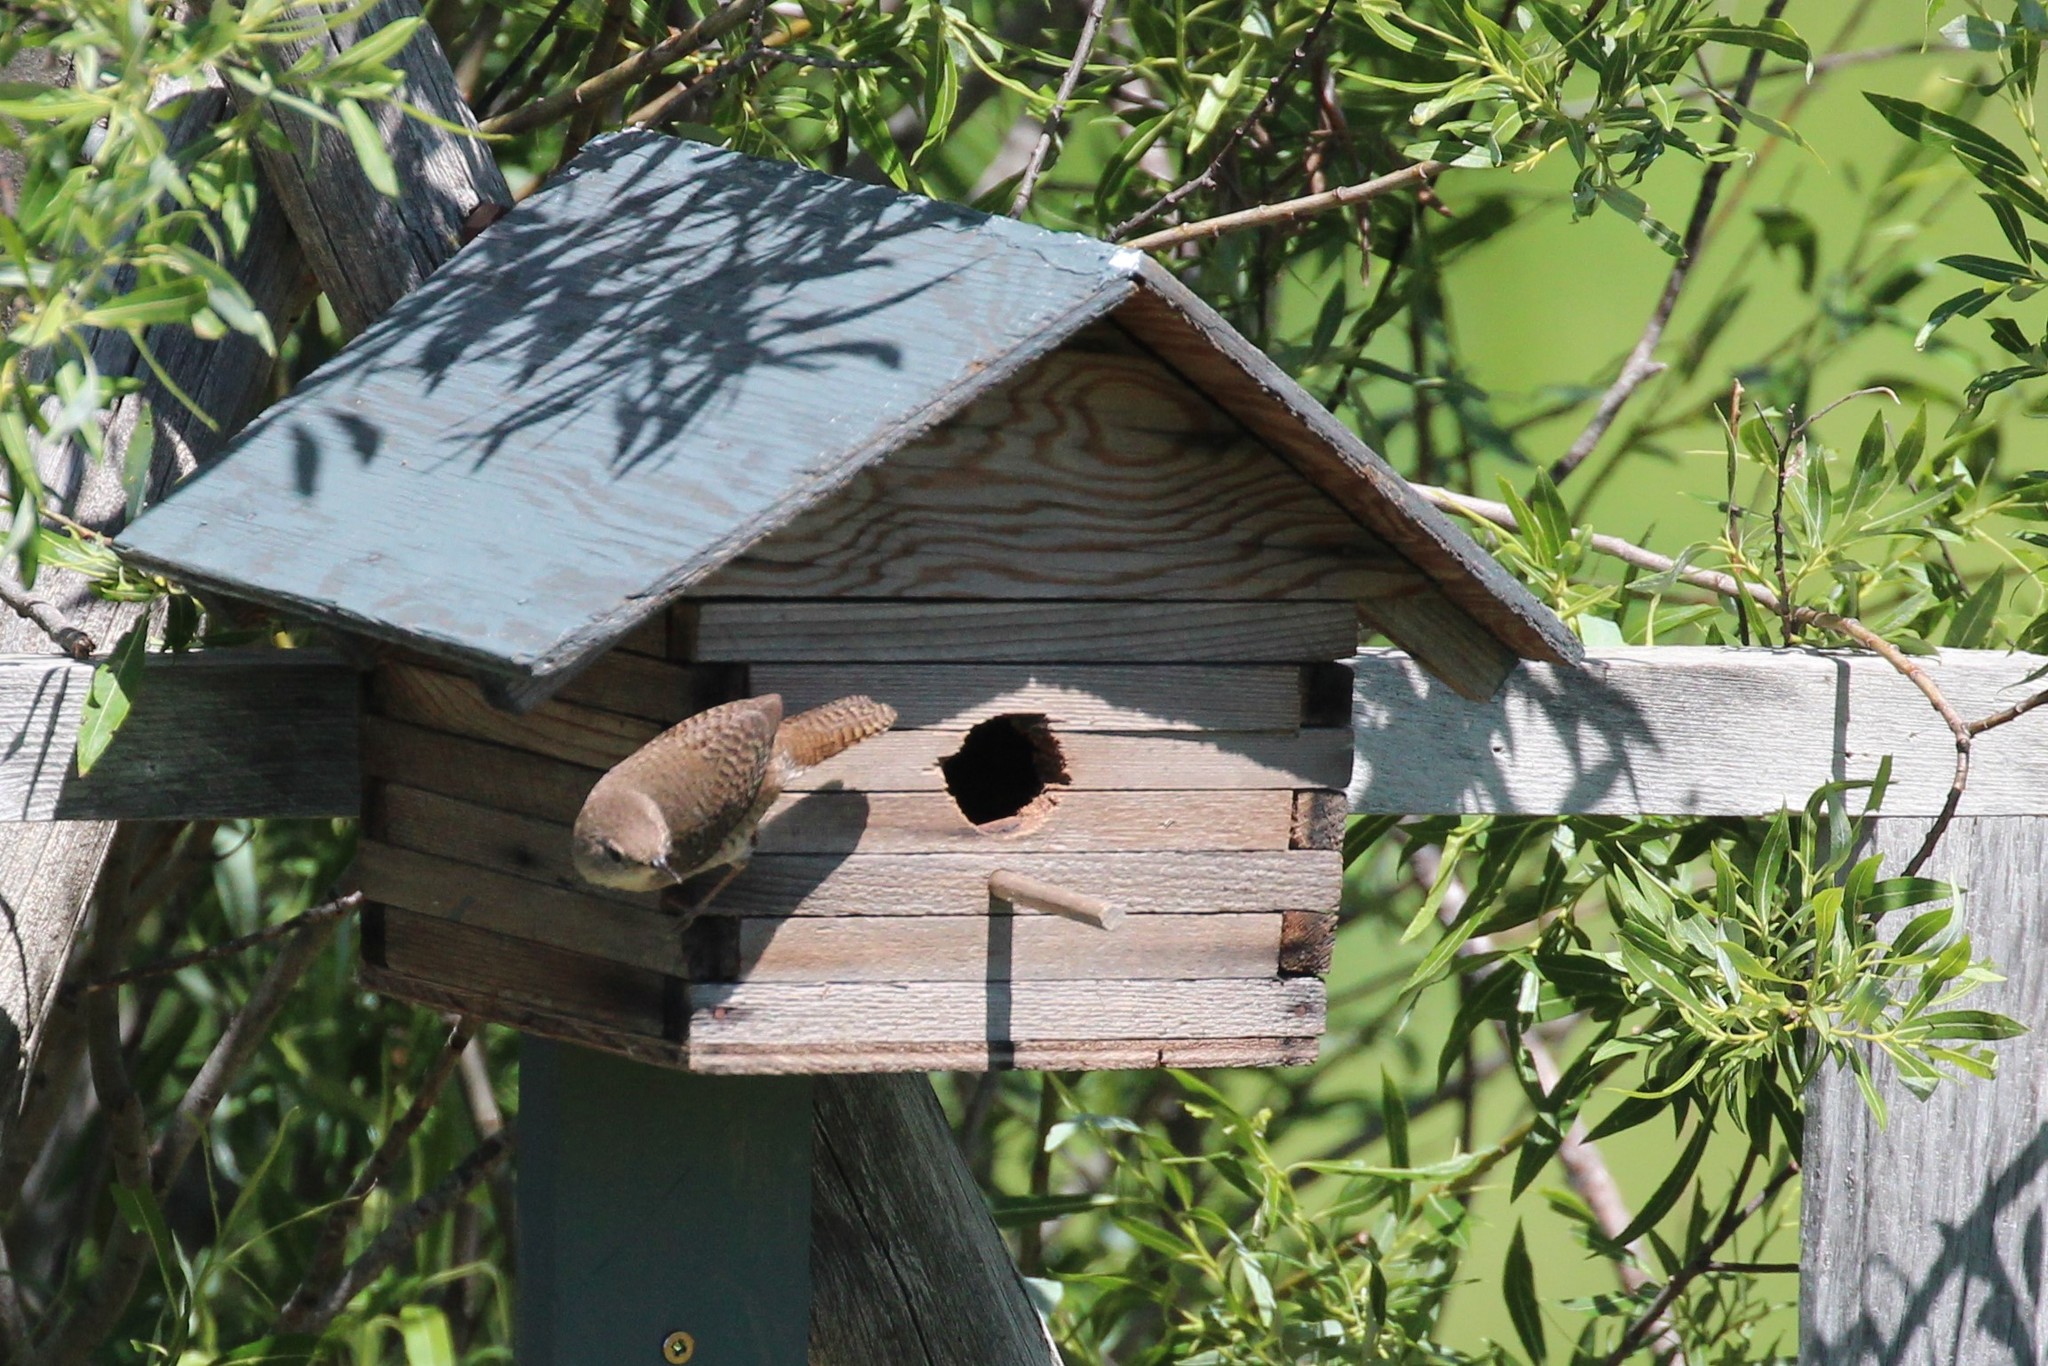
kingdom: Animalia
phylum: Chordata
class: Aves
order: Passeriformes
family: Troglodytidae
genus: Troglodytes
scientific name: Troglodytes aedon
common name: House wren
